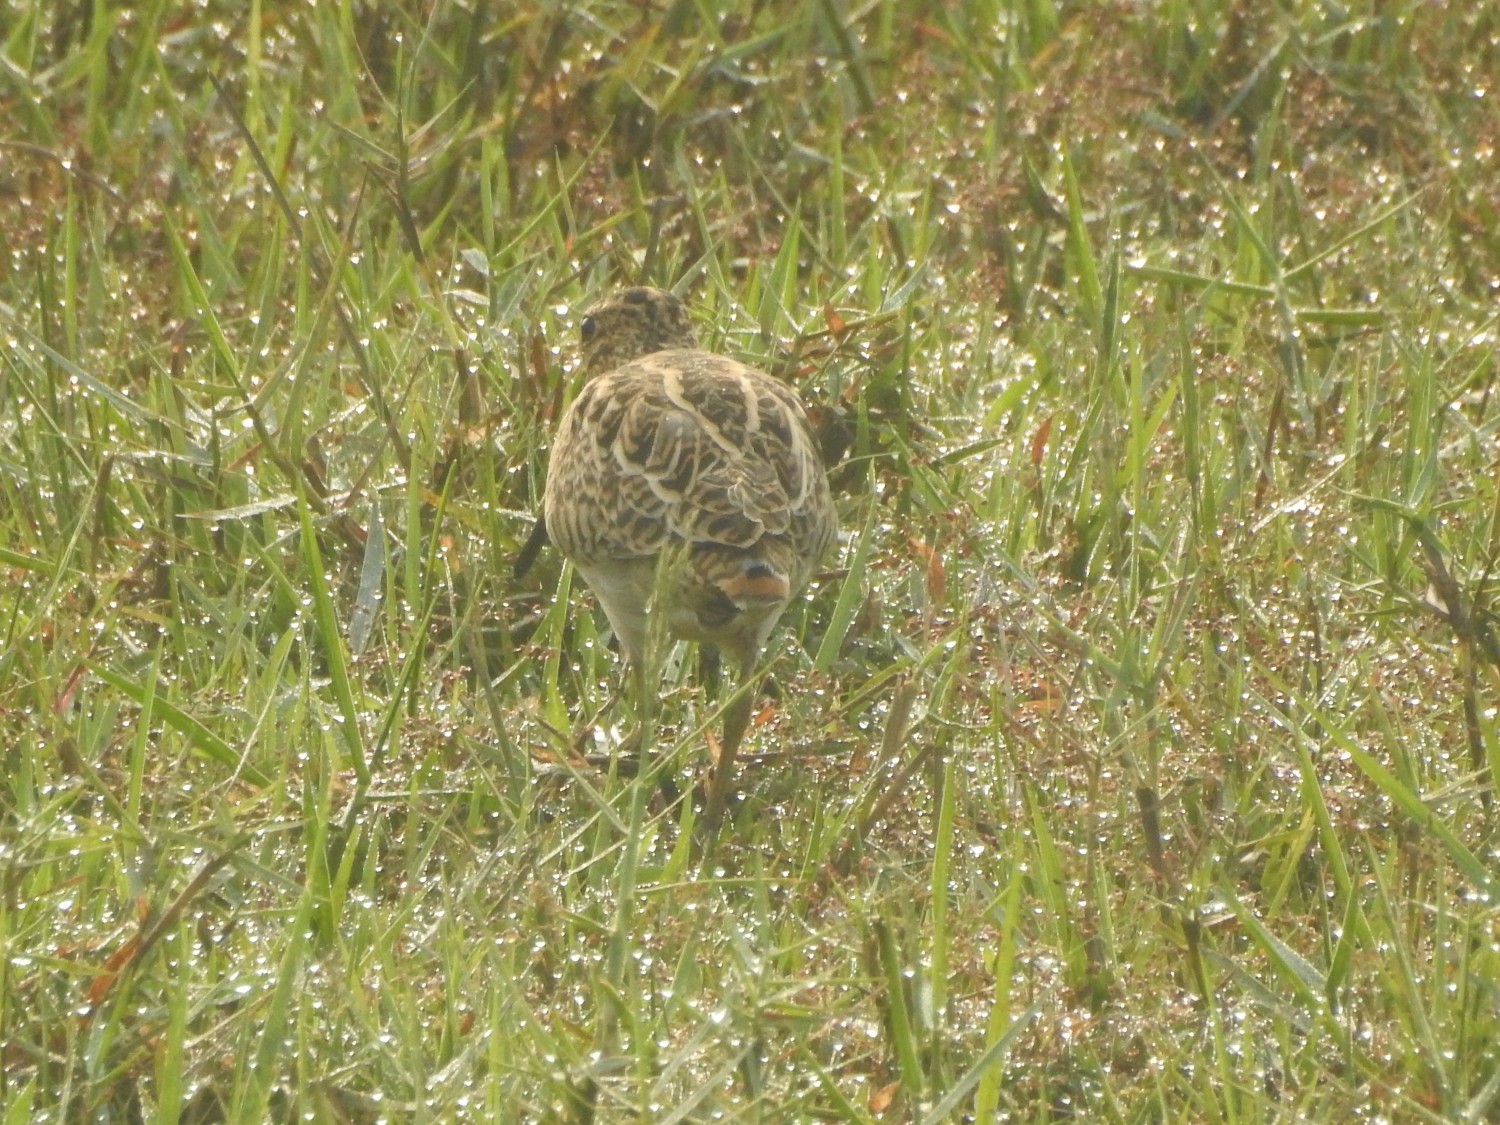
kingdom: Animalia
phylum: Chordata
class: Aves
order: Charadriiformes
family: Scolopacidae
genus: Gallinago
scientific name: Gallinago gallinago
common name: Common snipe
